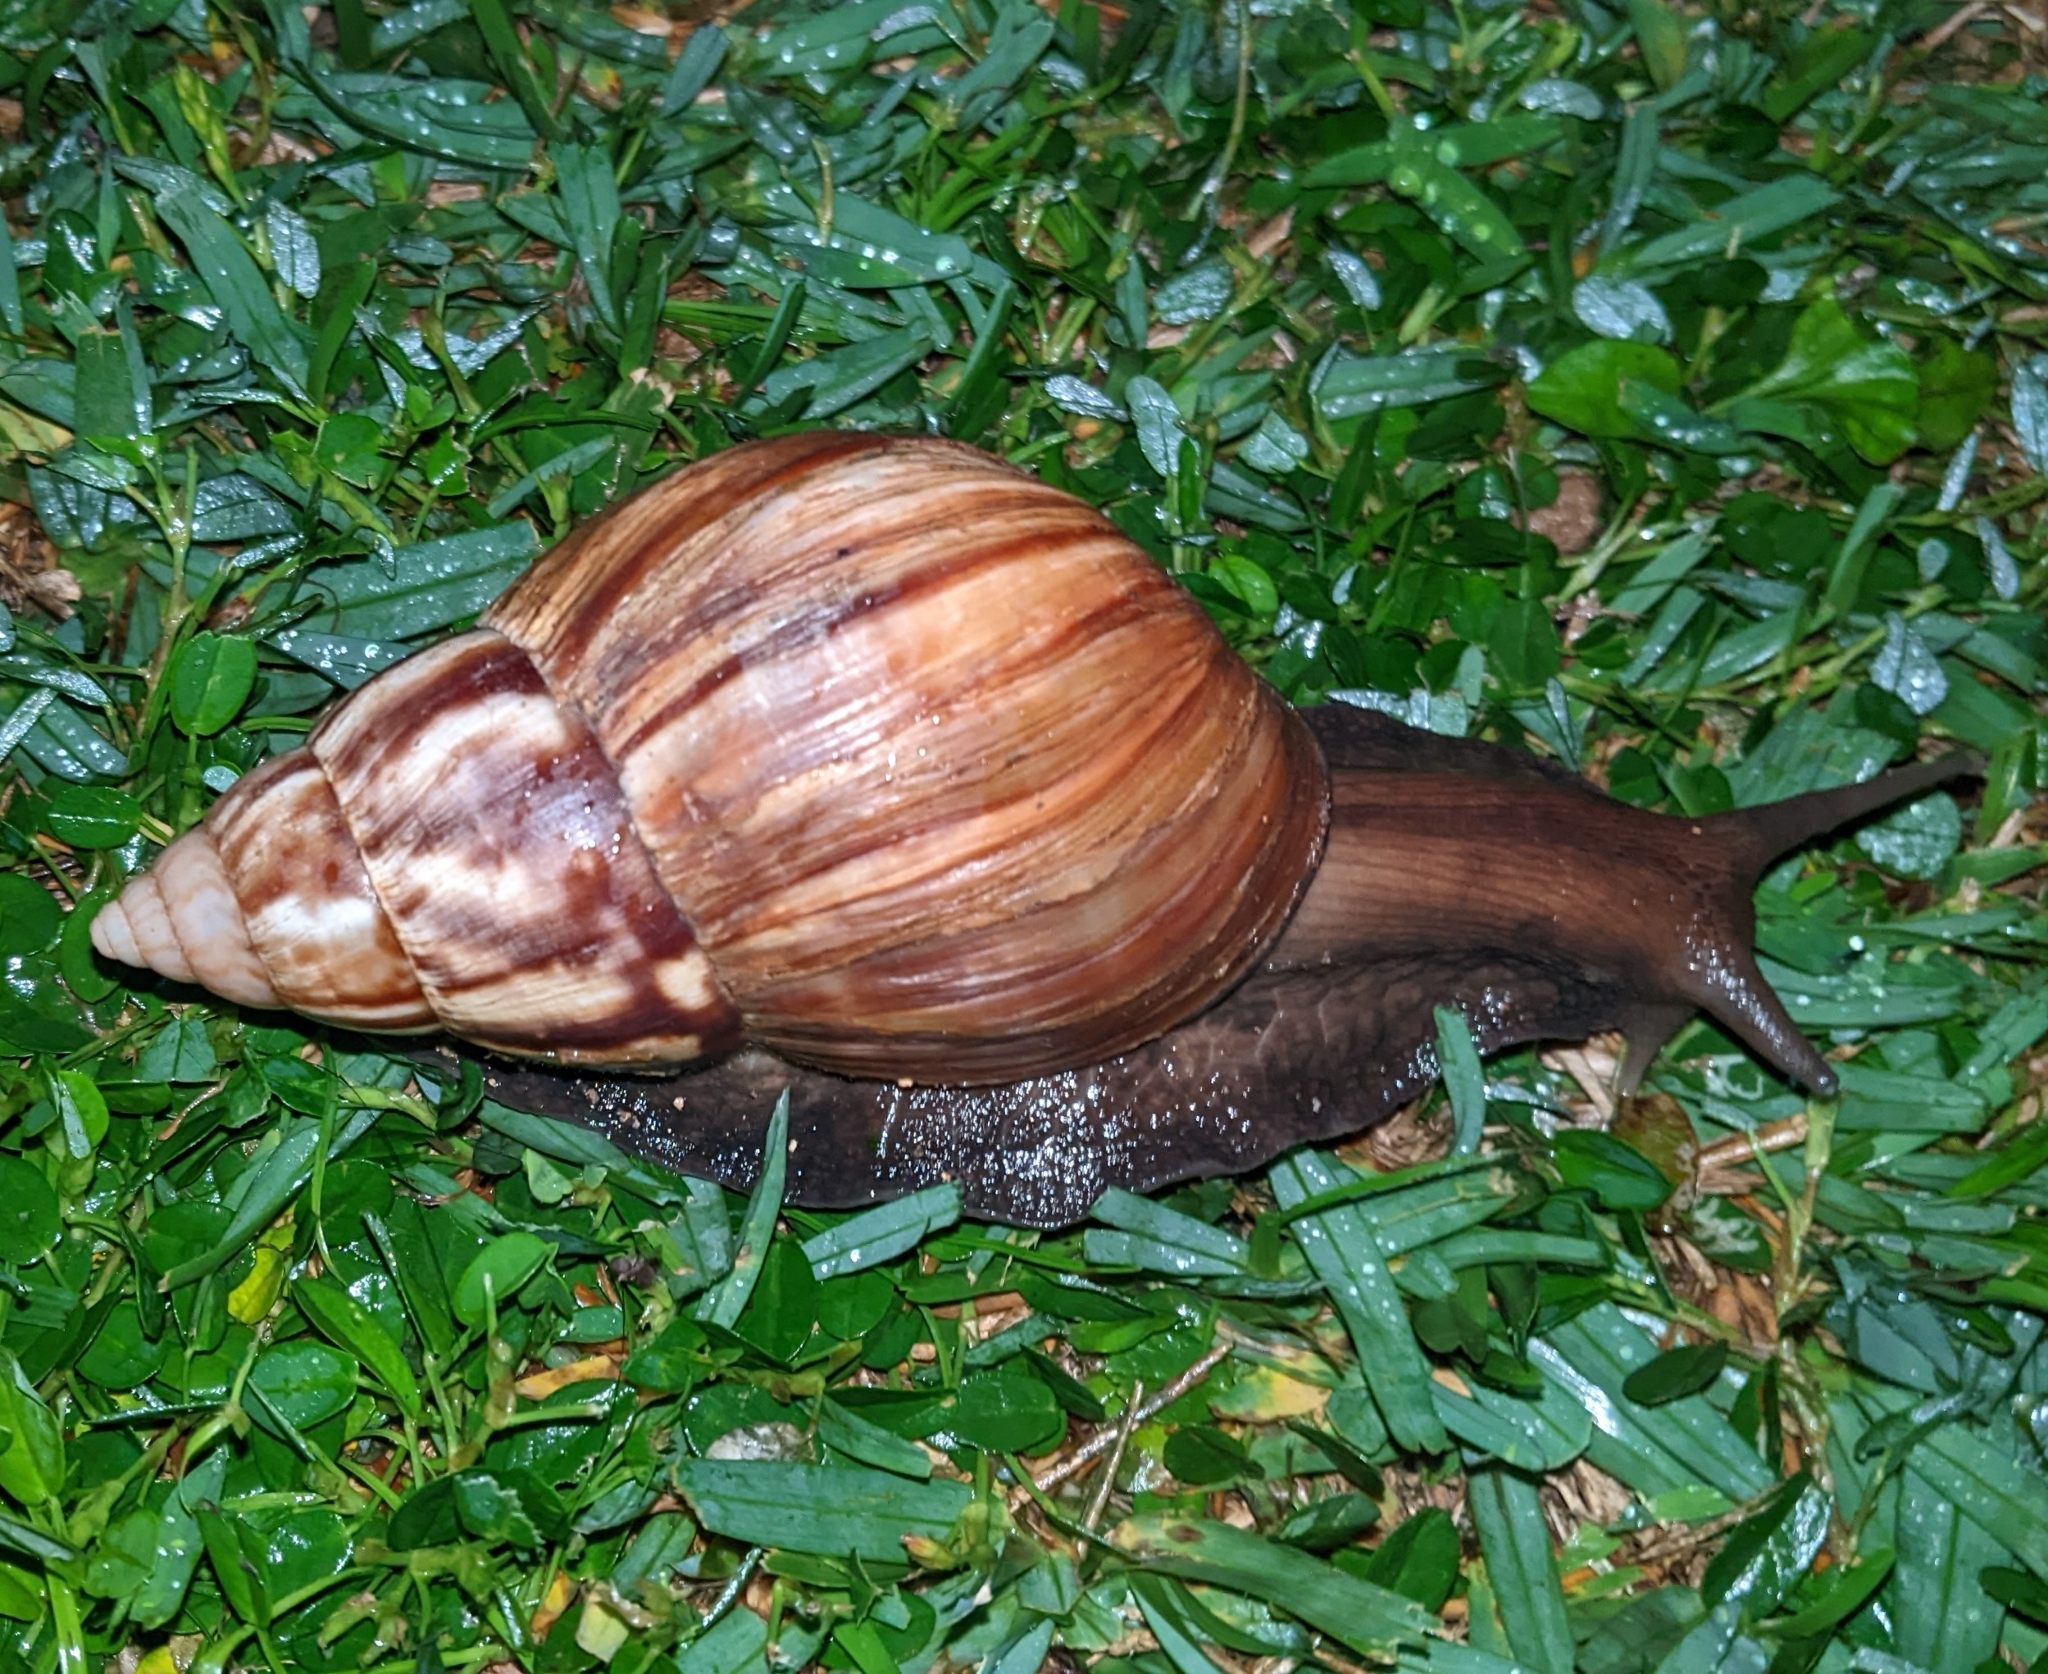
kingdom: Animalia
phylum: Mollusca
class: Gastropoda
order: Stylommatophora
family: Achatinidae
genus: Lissachatina
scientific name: Lissachatina fulica
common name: Giant african snail
